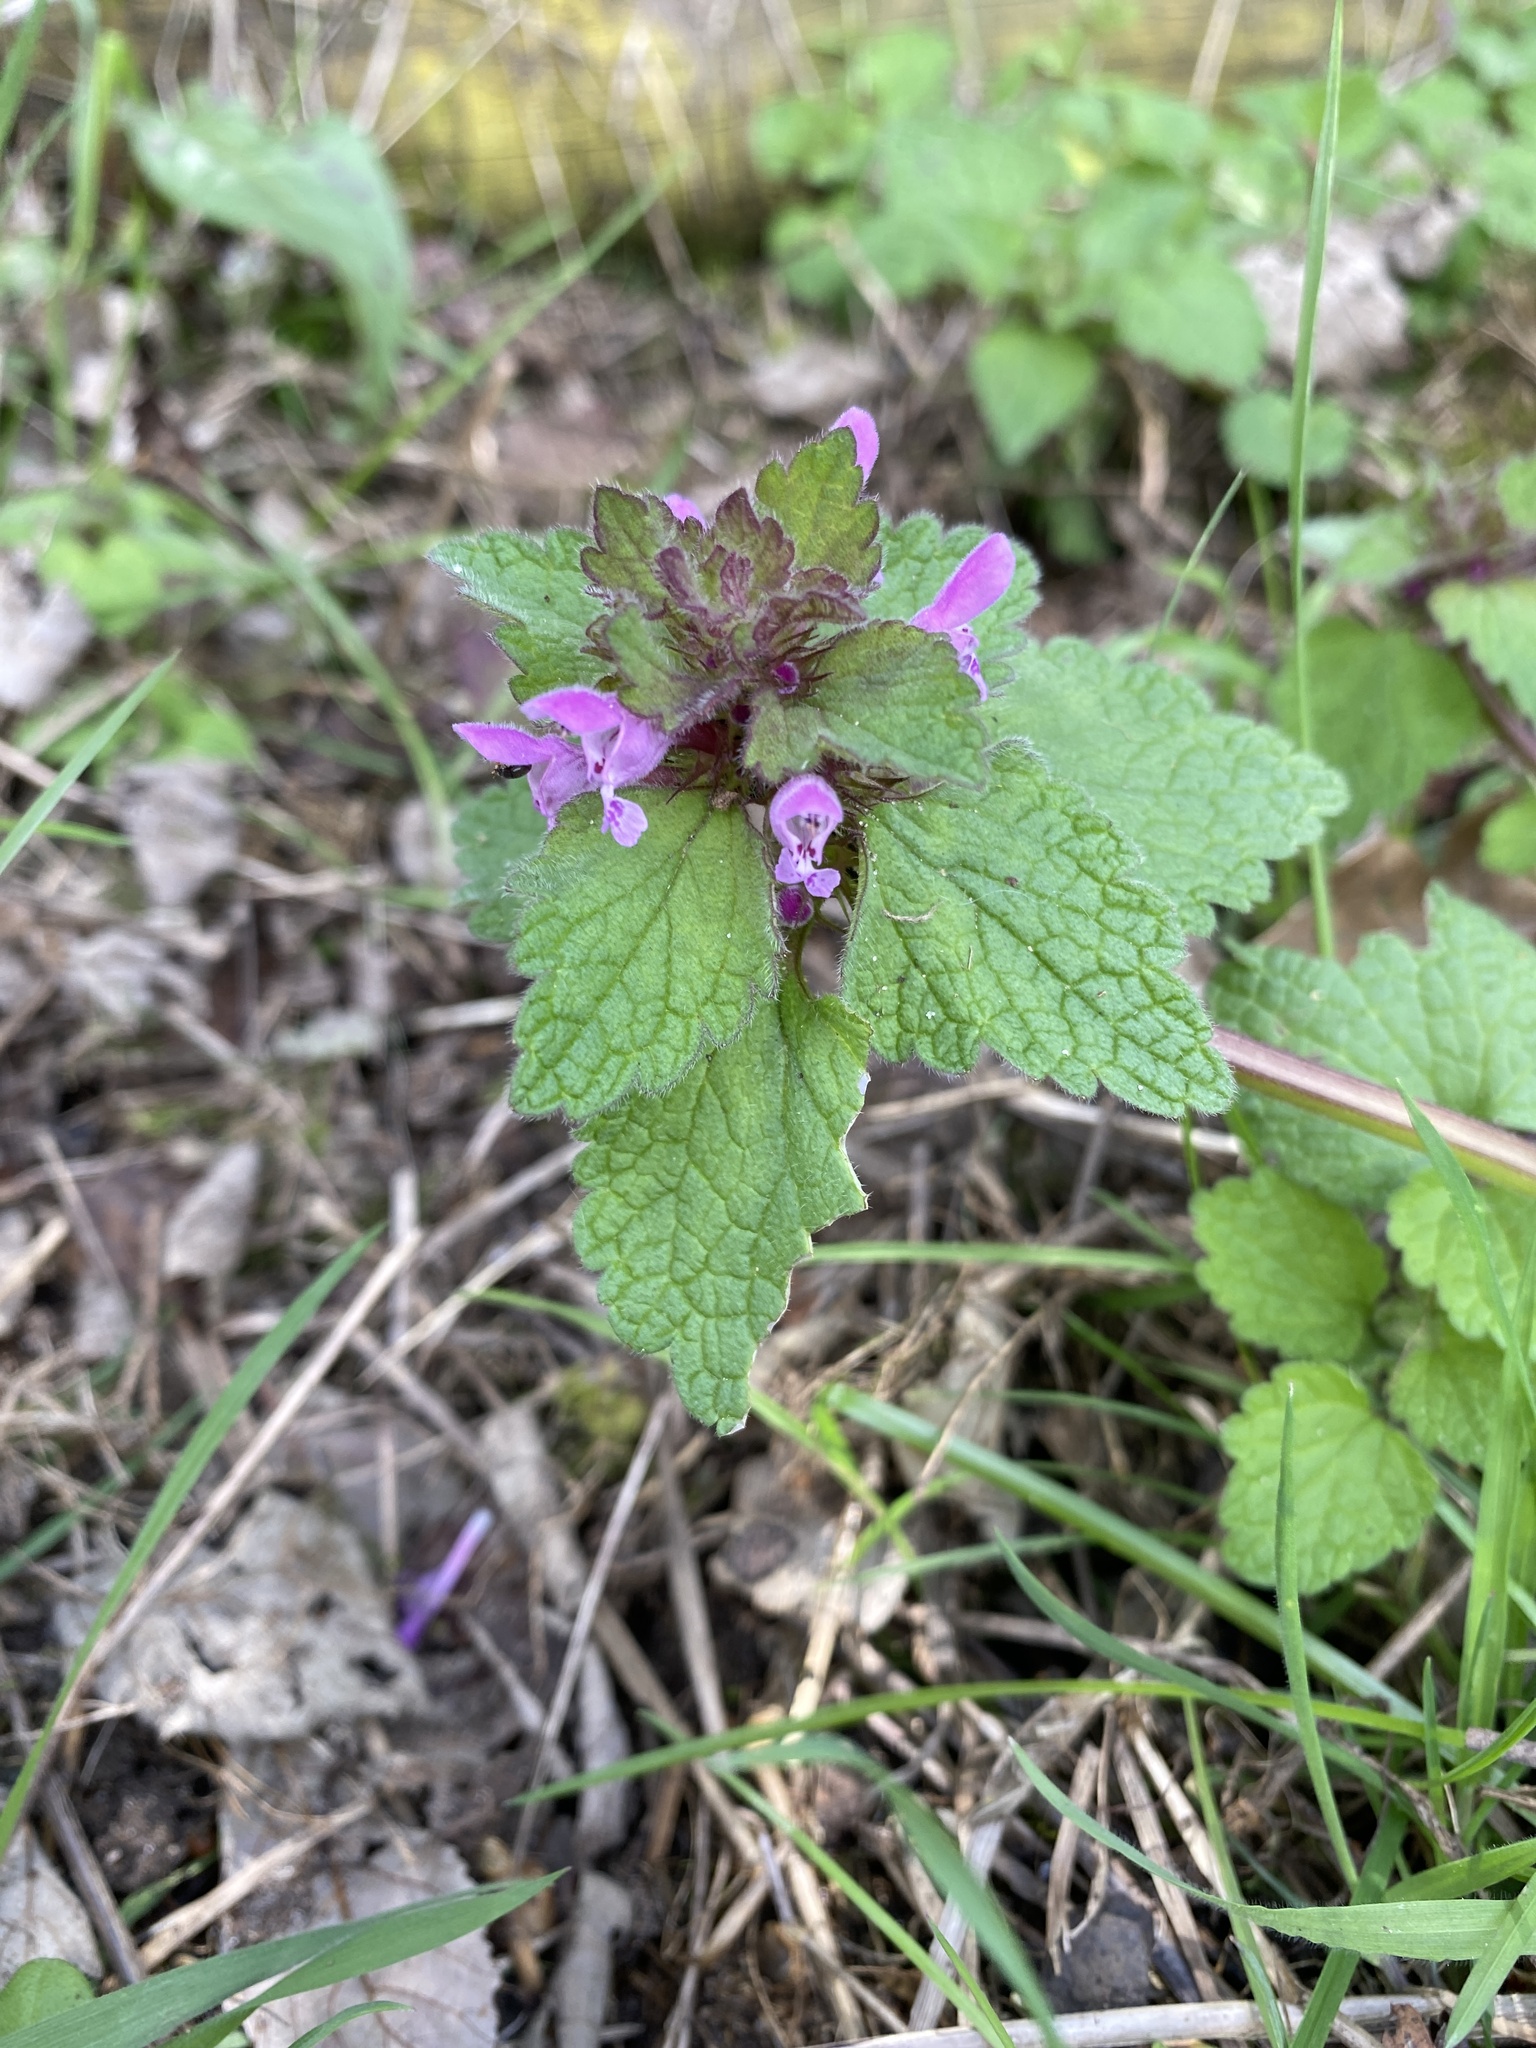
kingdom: Plantae
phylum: Tracheophyta
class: Magnoliopsida
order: Lamiales
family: Lamiaceae
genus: Lamium
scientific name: Lamium purpureum
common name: Red dead-nettle
